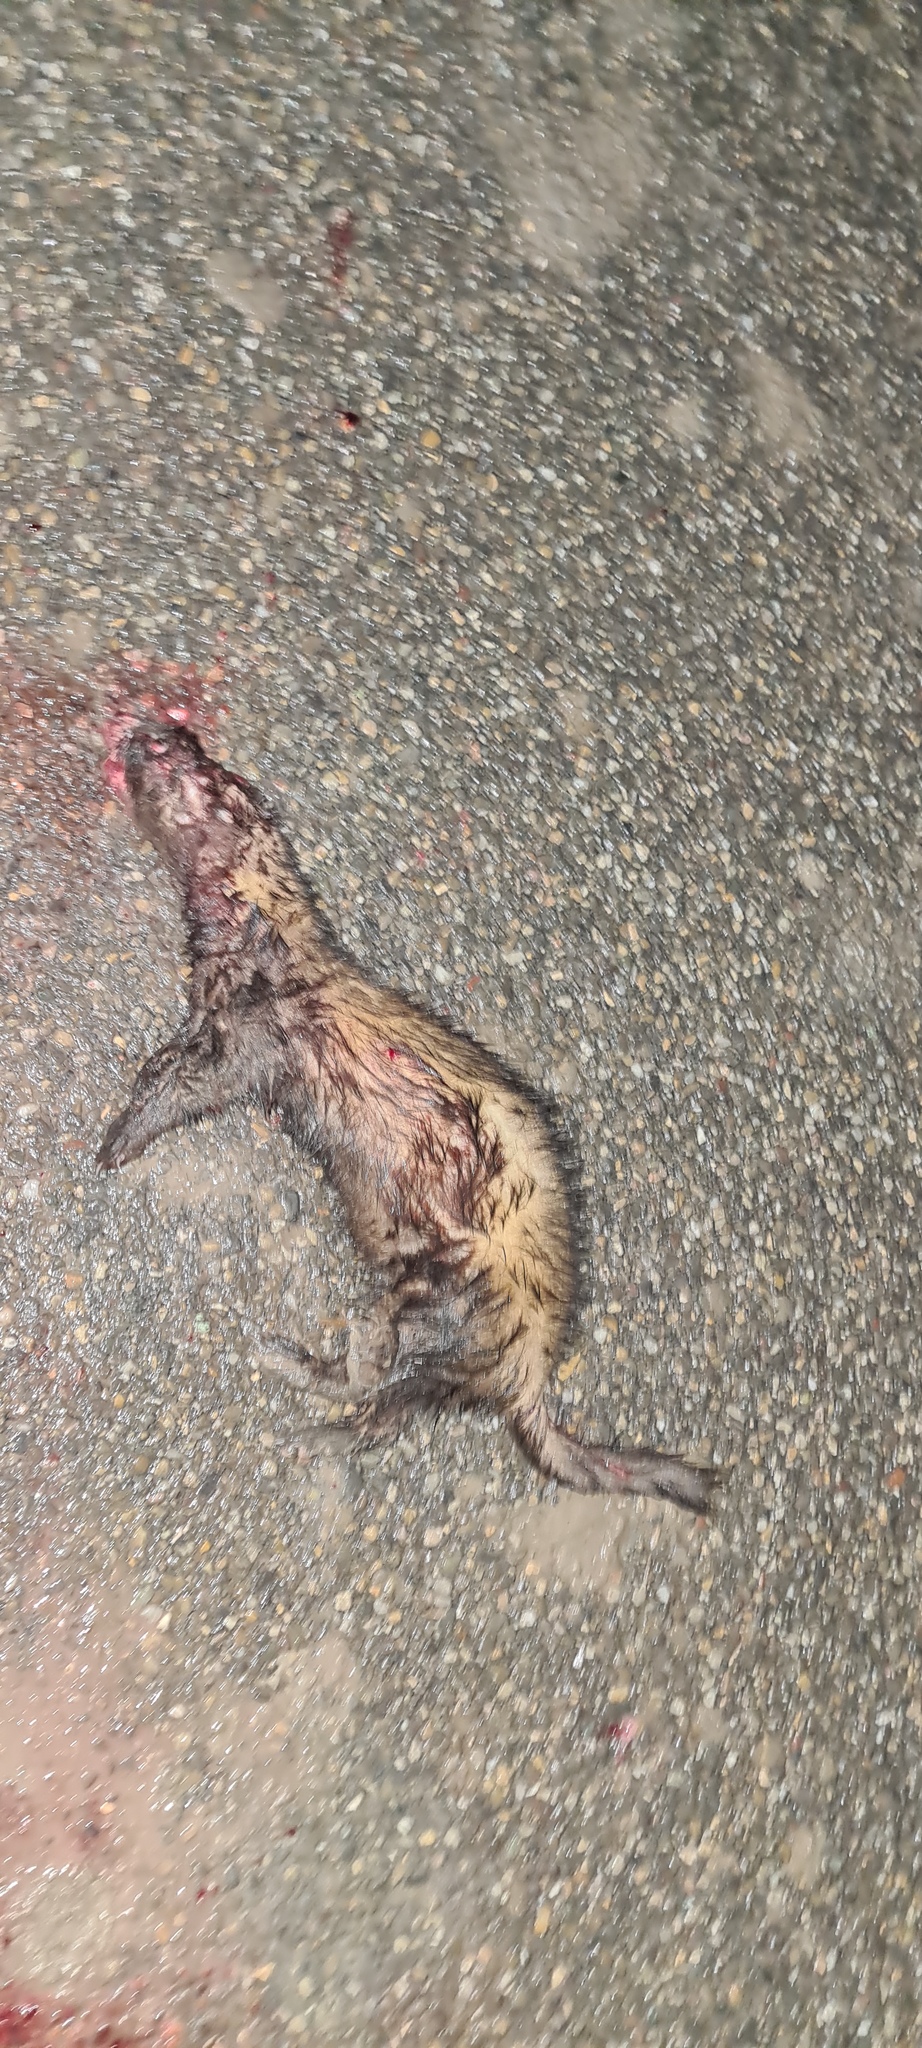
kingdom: Animalia
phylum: Chordata
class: Mammalia
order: Carnivora
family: Mustelidae
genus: Mustela
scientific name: Mustela putorius
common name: European polecat
